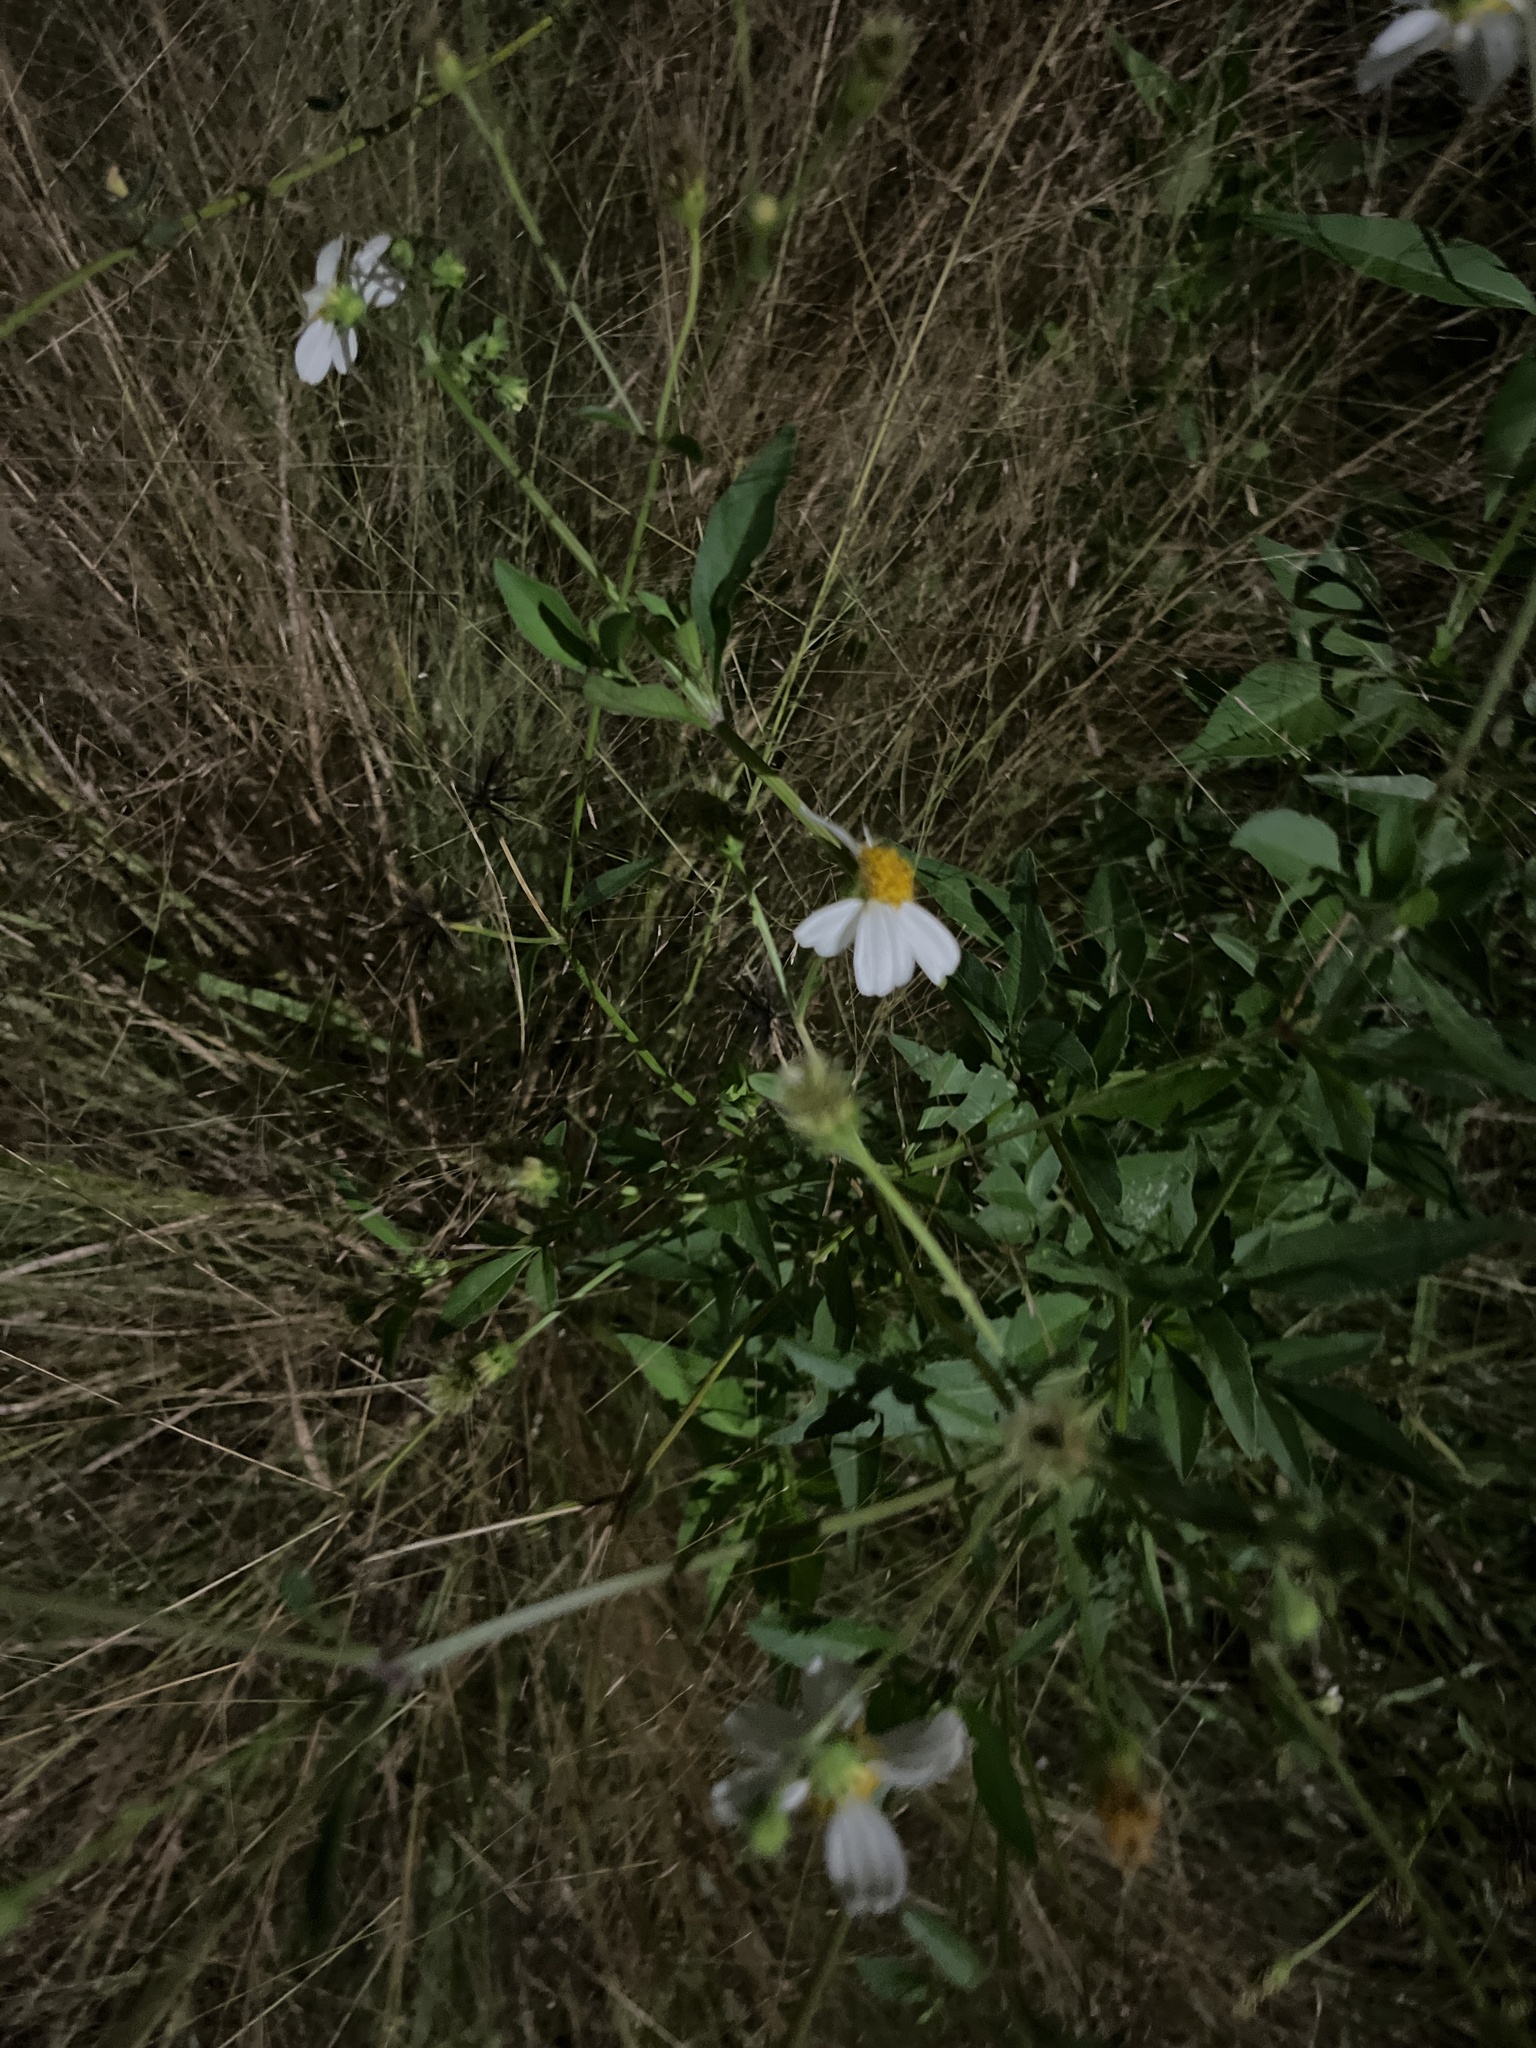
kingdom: Plantae
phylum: Tracheophyta
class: Magnoliopsida
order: Asterales
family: Asteraceae
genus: Bidens
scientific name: Bidens alba
